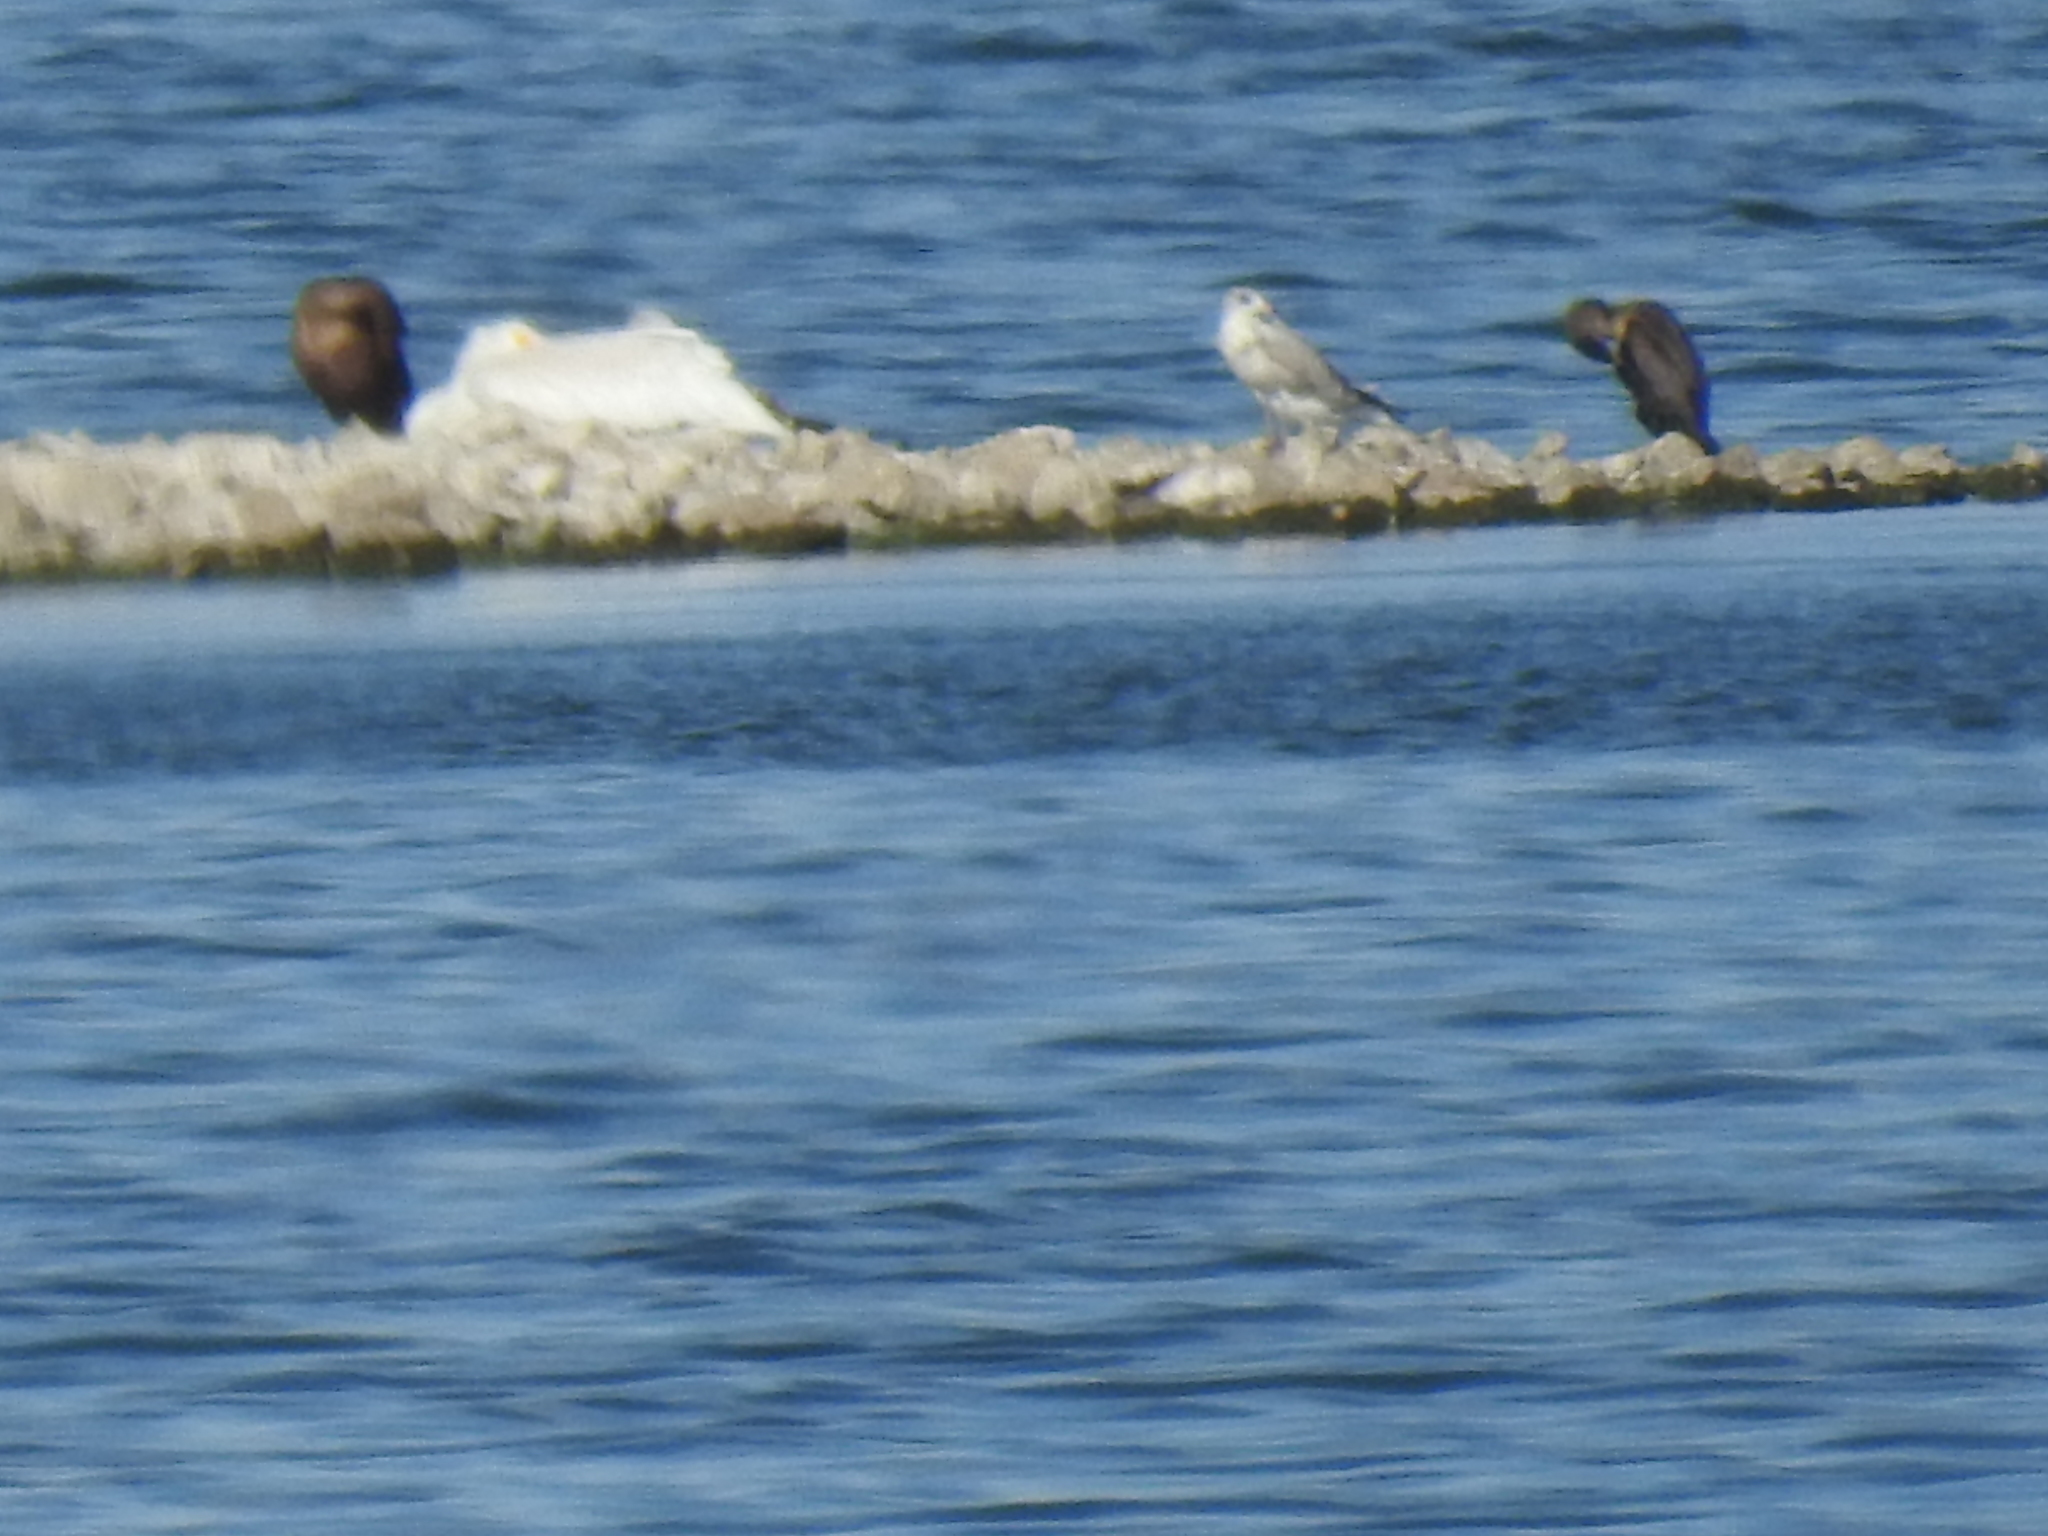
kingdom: Animalia
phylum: Chordata
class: Aves
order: Suliformes
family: Phalacrocoracidae
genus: Phalacrocorax
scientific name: Phalacrocorax auritus
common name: Double-crested cormorant
